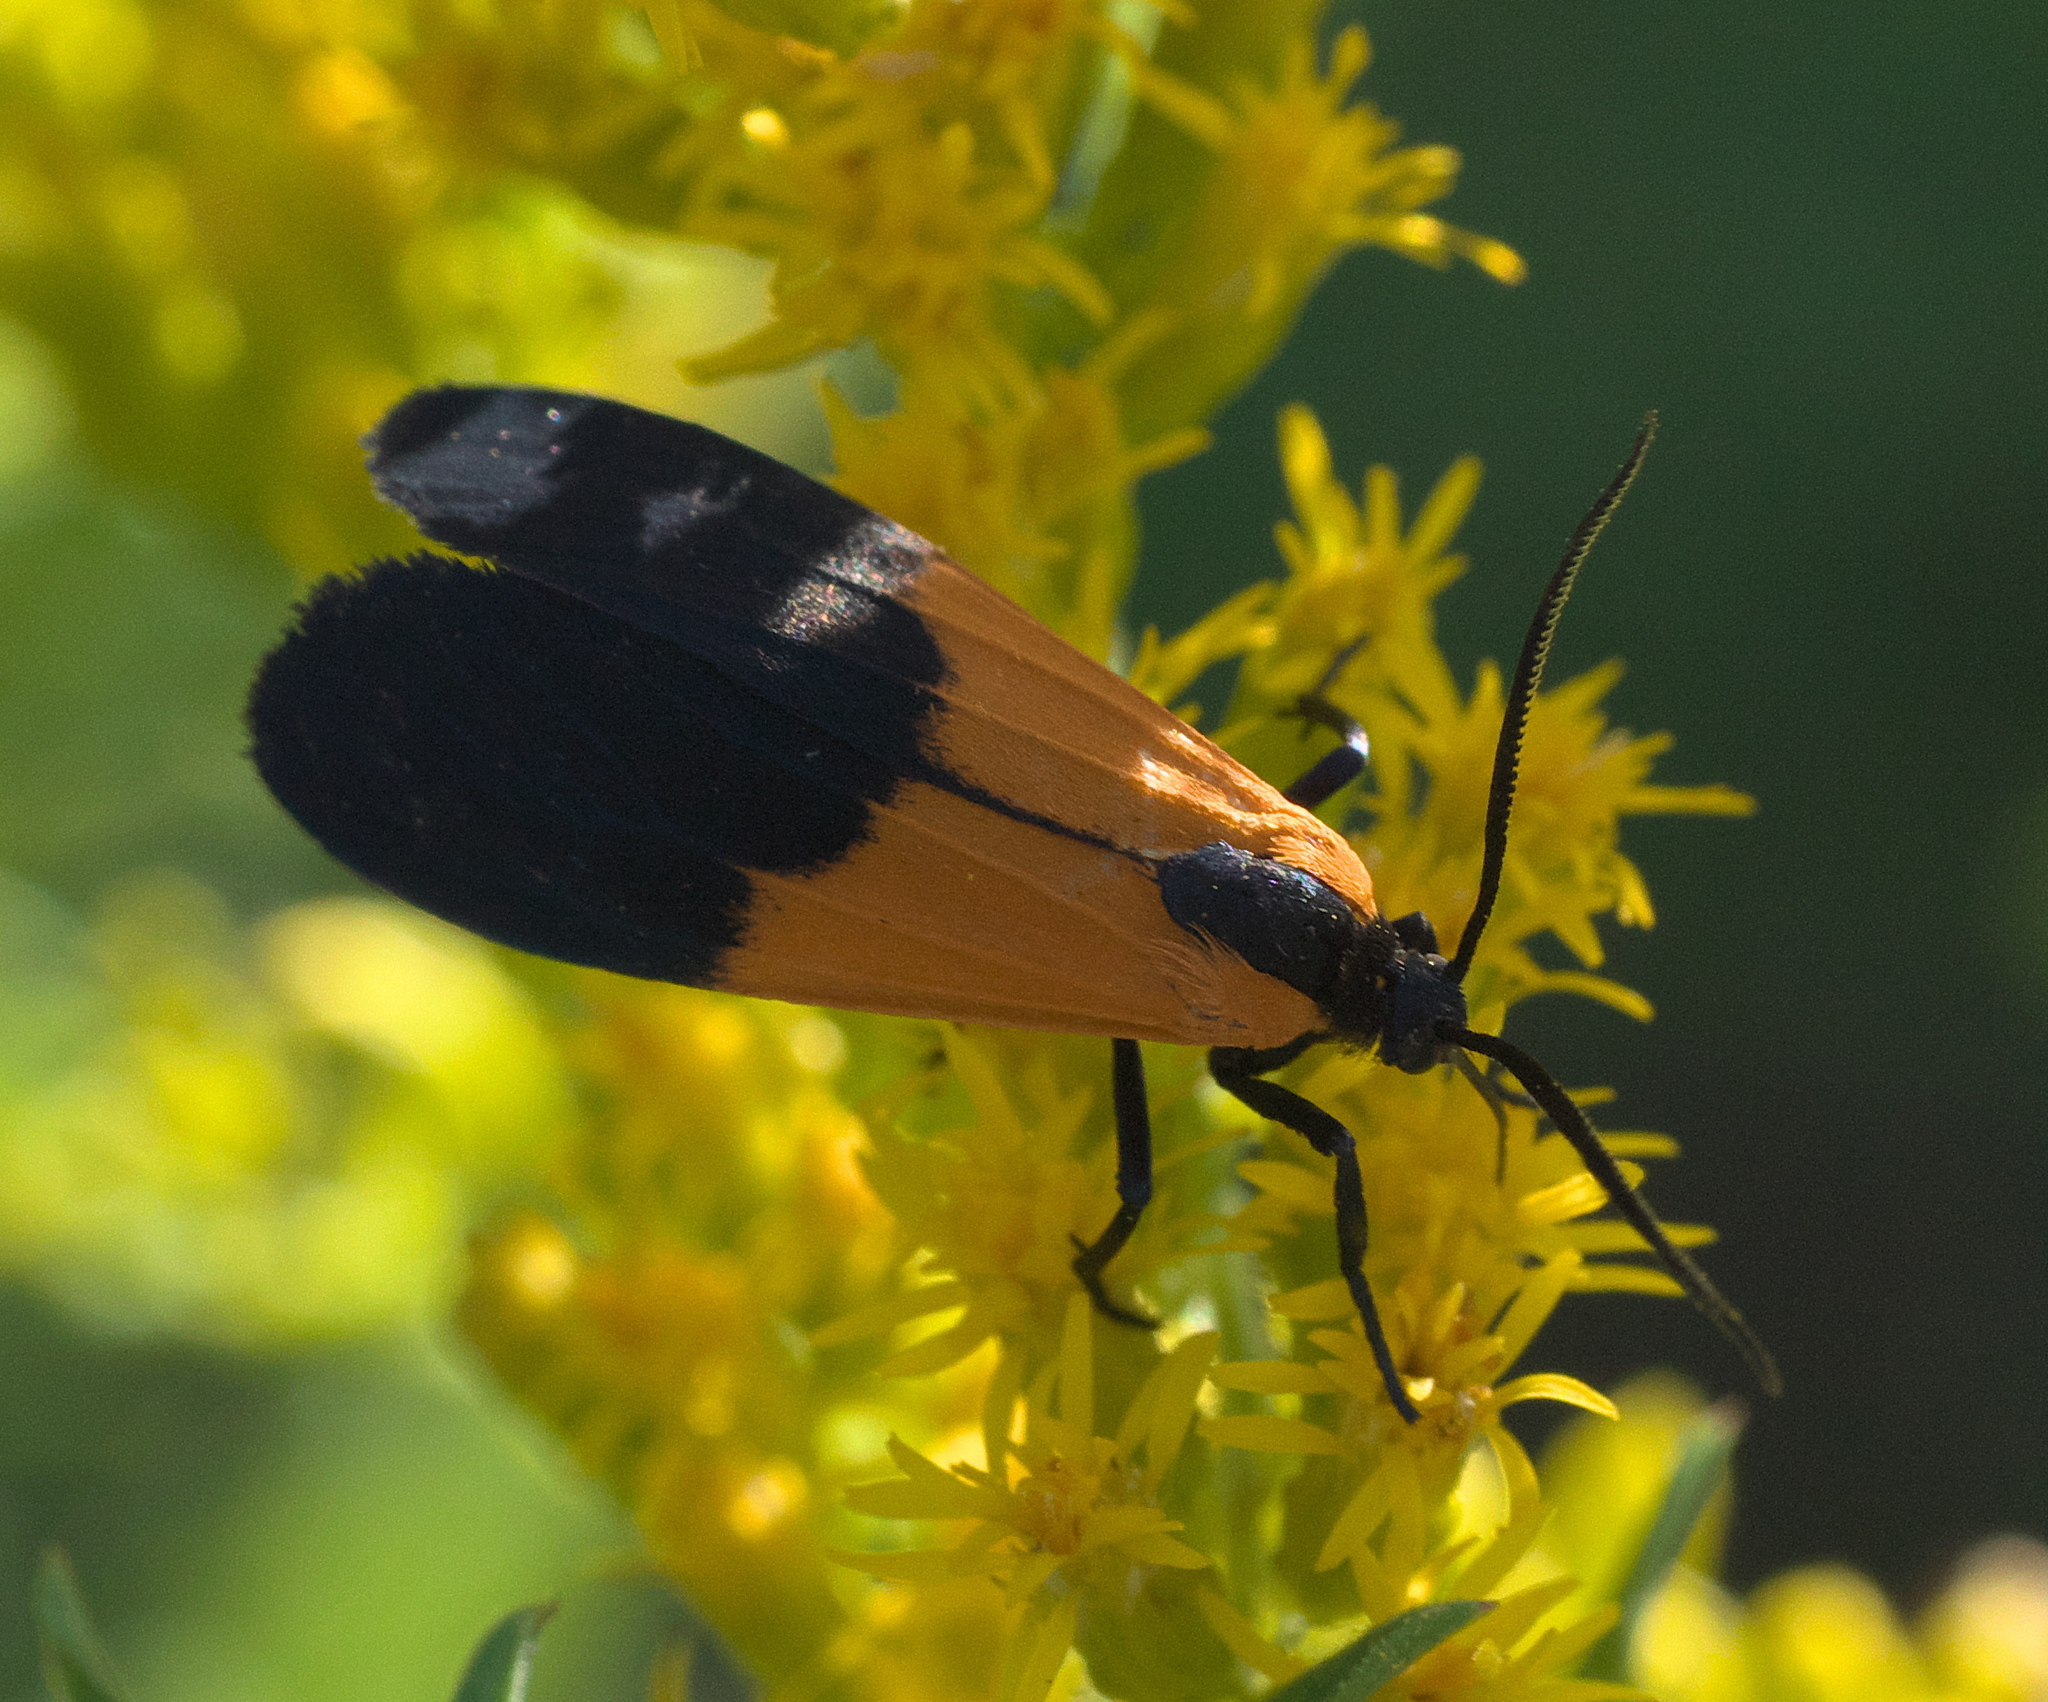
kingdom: Animalia
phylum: Arthropoda
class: Insecta
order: Lepidoptera
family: Erebidae
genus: Lycomorpha
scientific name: Lycomorpha pholus
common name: Black-and-yellow lichen moth
